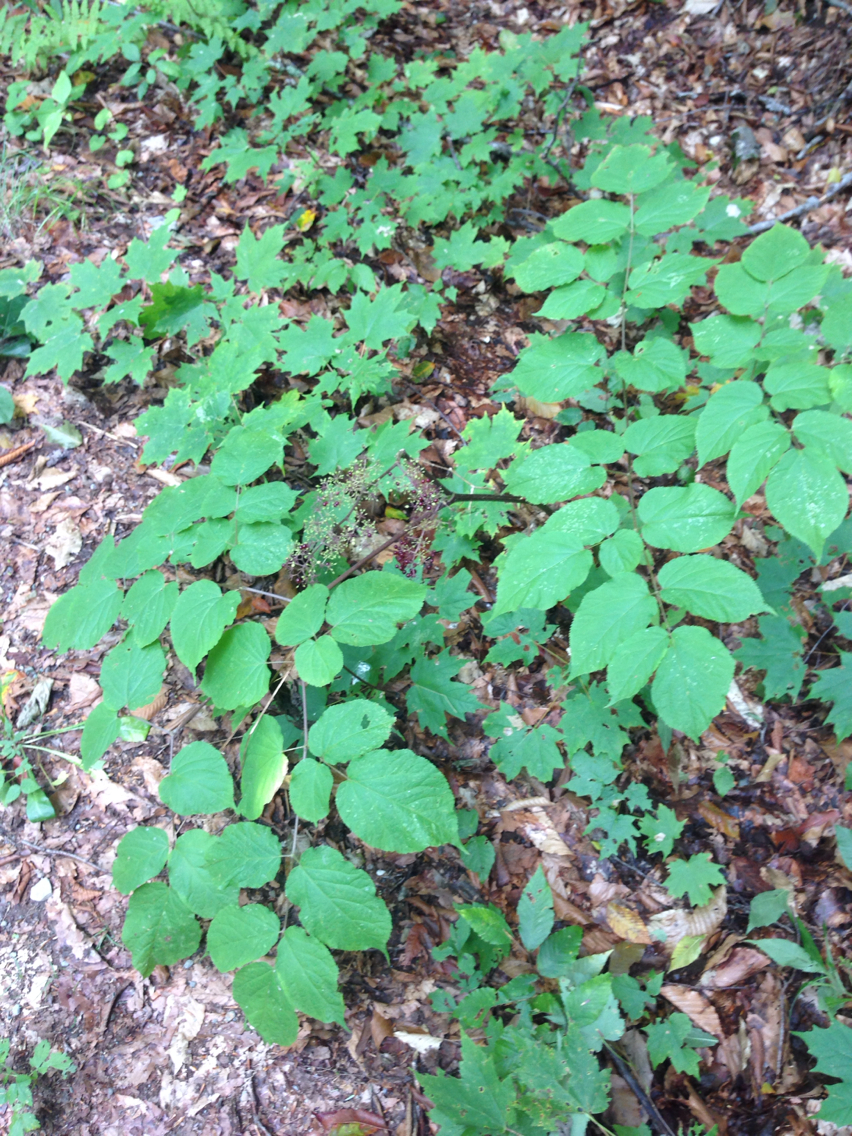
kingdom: Plantae
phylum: Tracheophyta
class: Magnoliopsida
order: Apiales
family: Araliaceae
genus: Aralia
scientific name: Aralia racemosa
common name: American-spikenard
